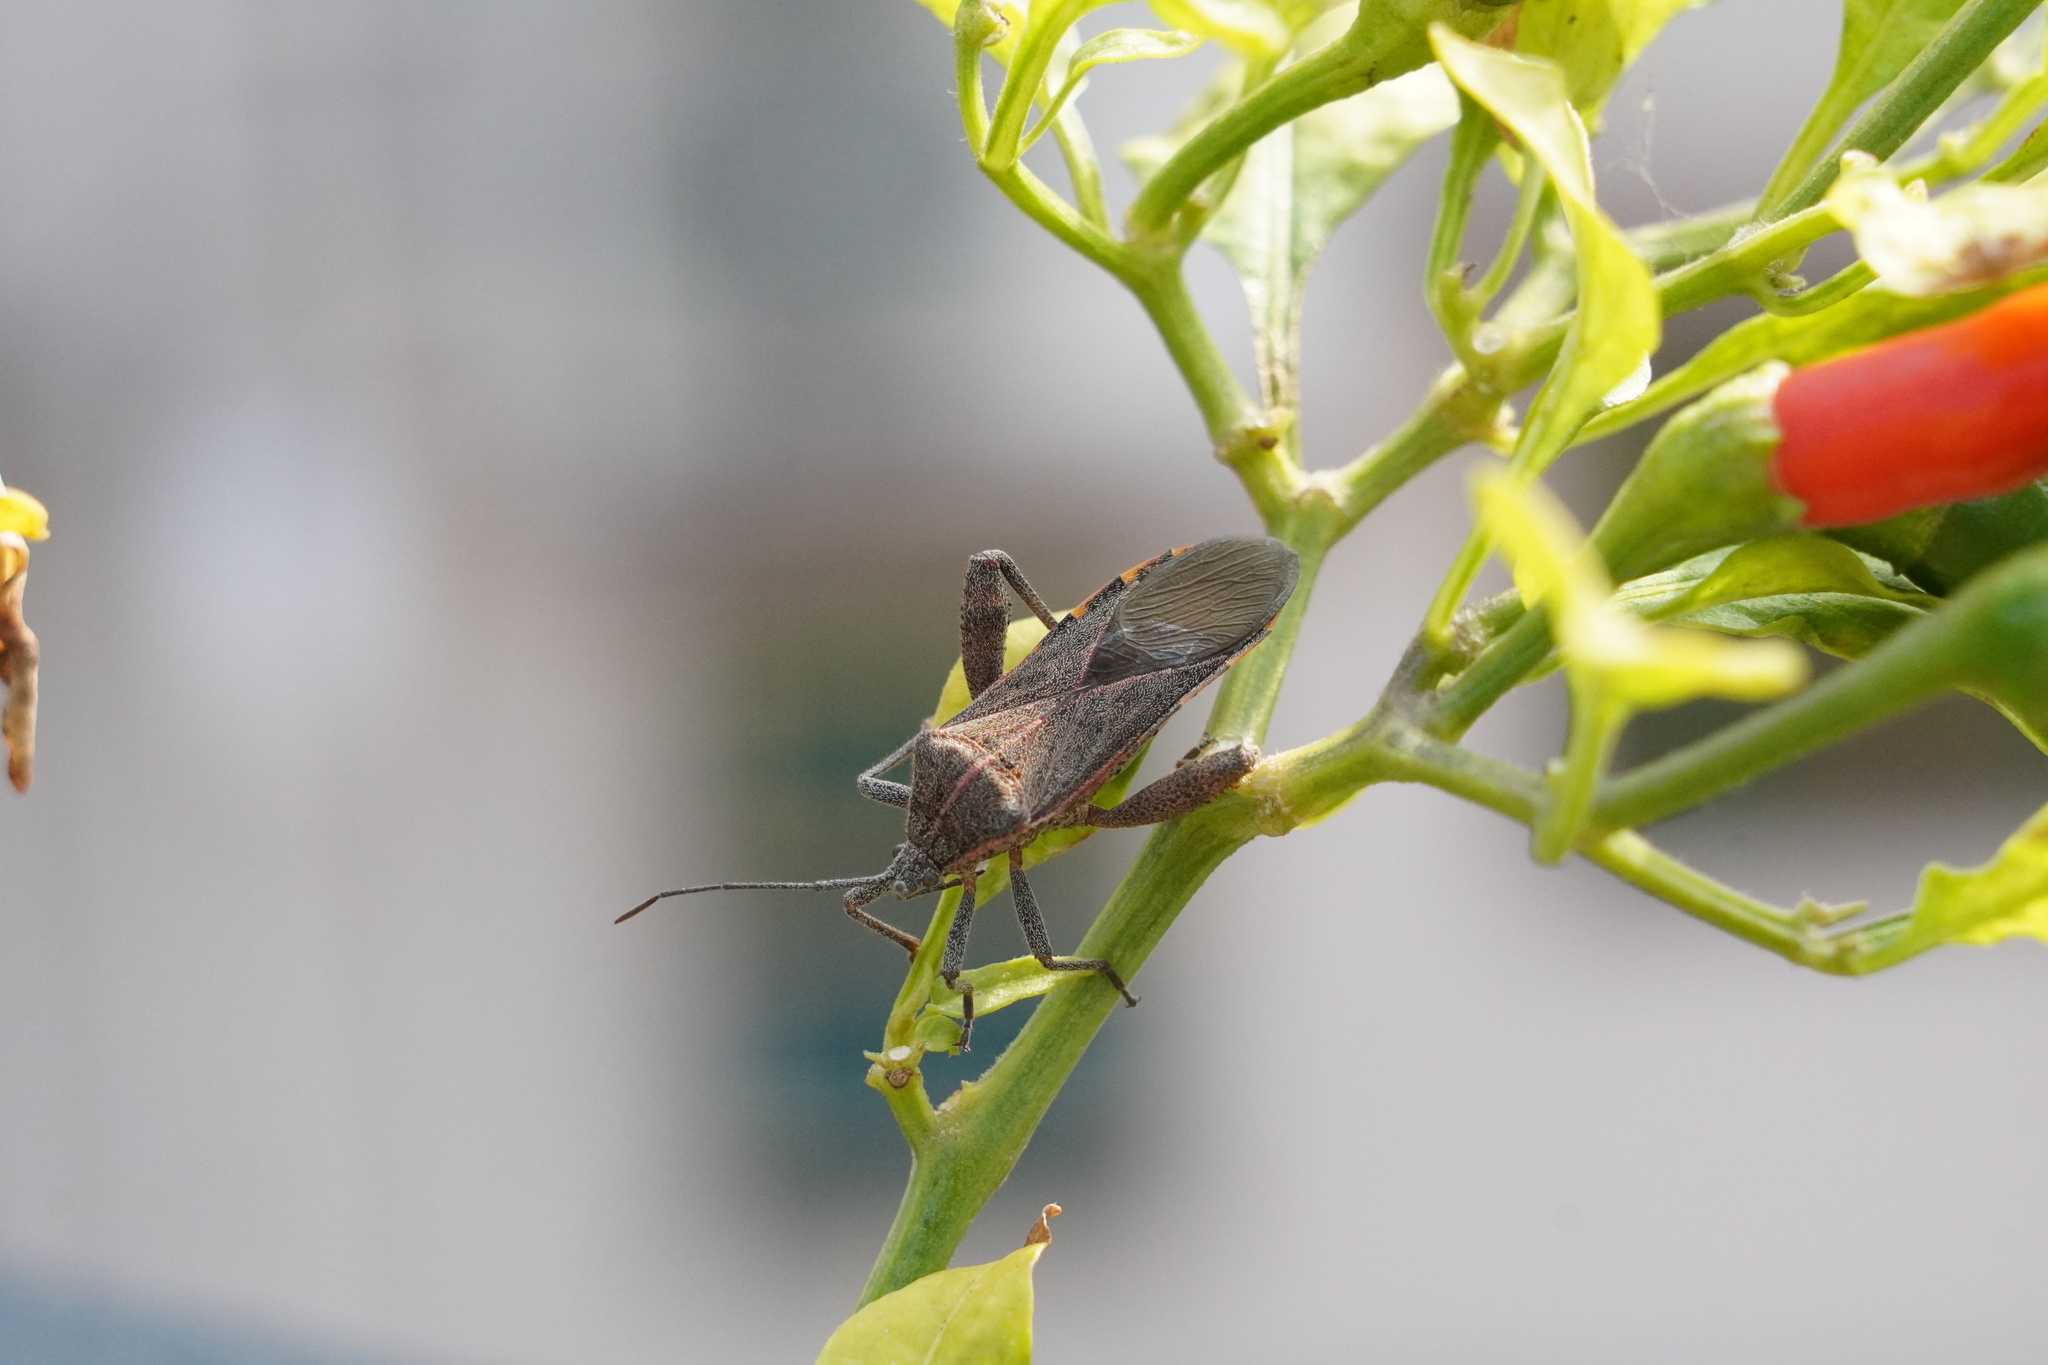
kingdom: Animalia
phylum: Arthropoda
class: Insecta
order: Hemiptera
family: Coreidae
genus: Physomerus
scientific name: Physomerus grossipes
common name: Squash bug
